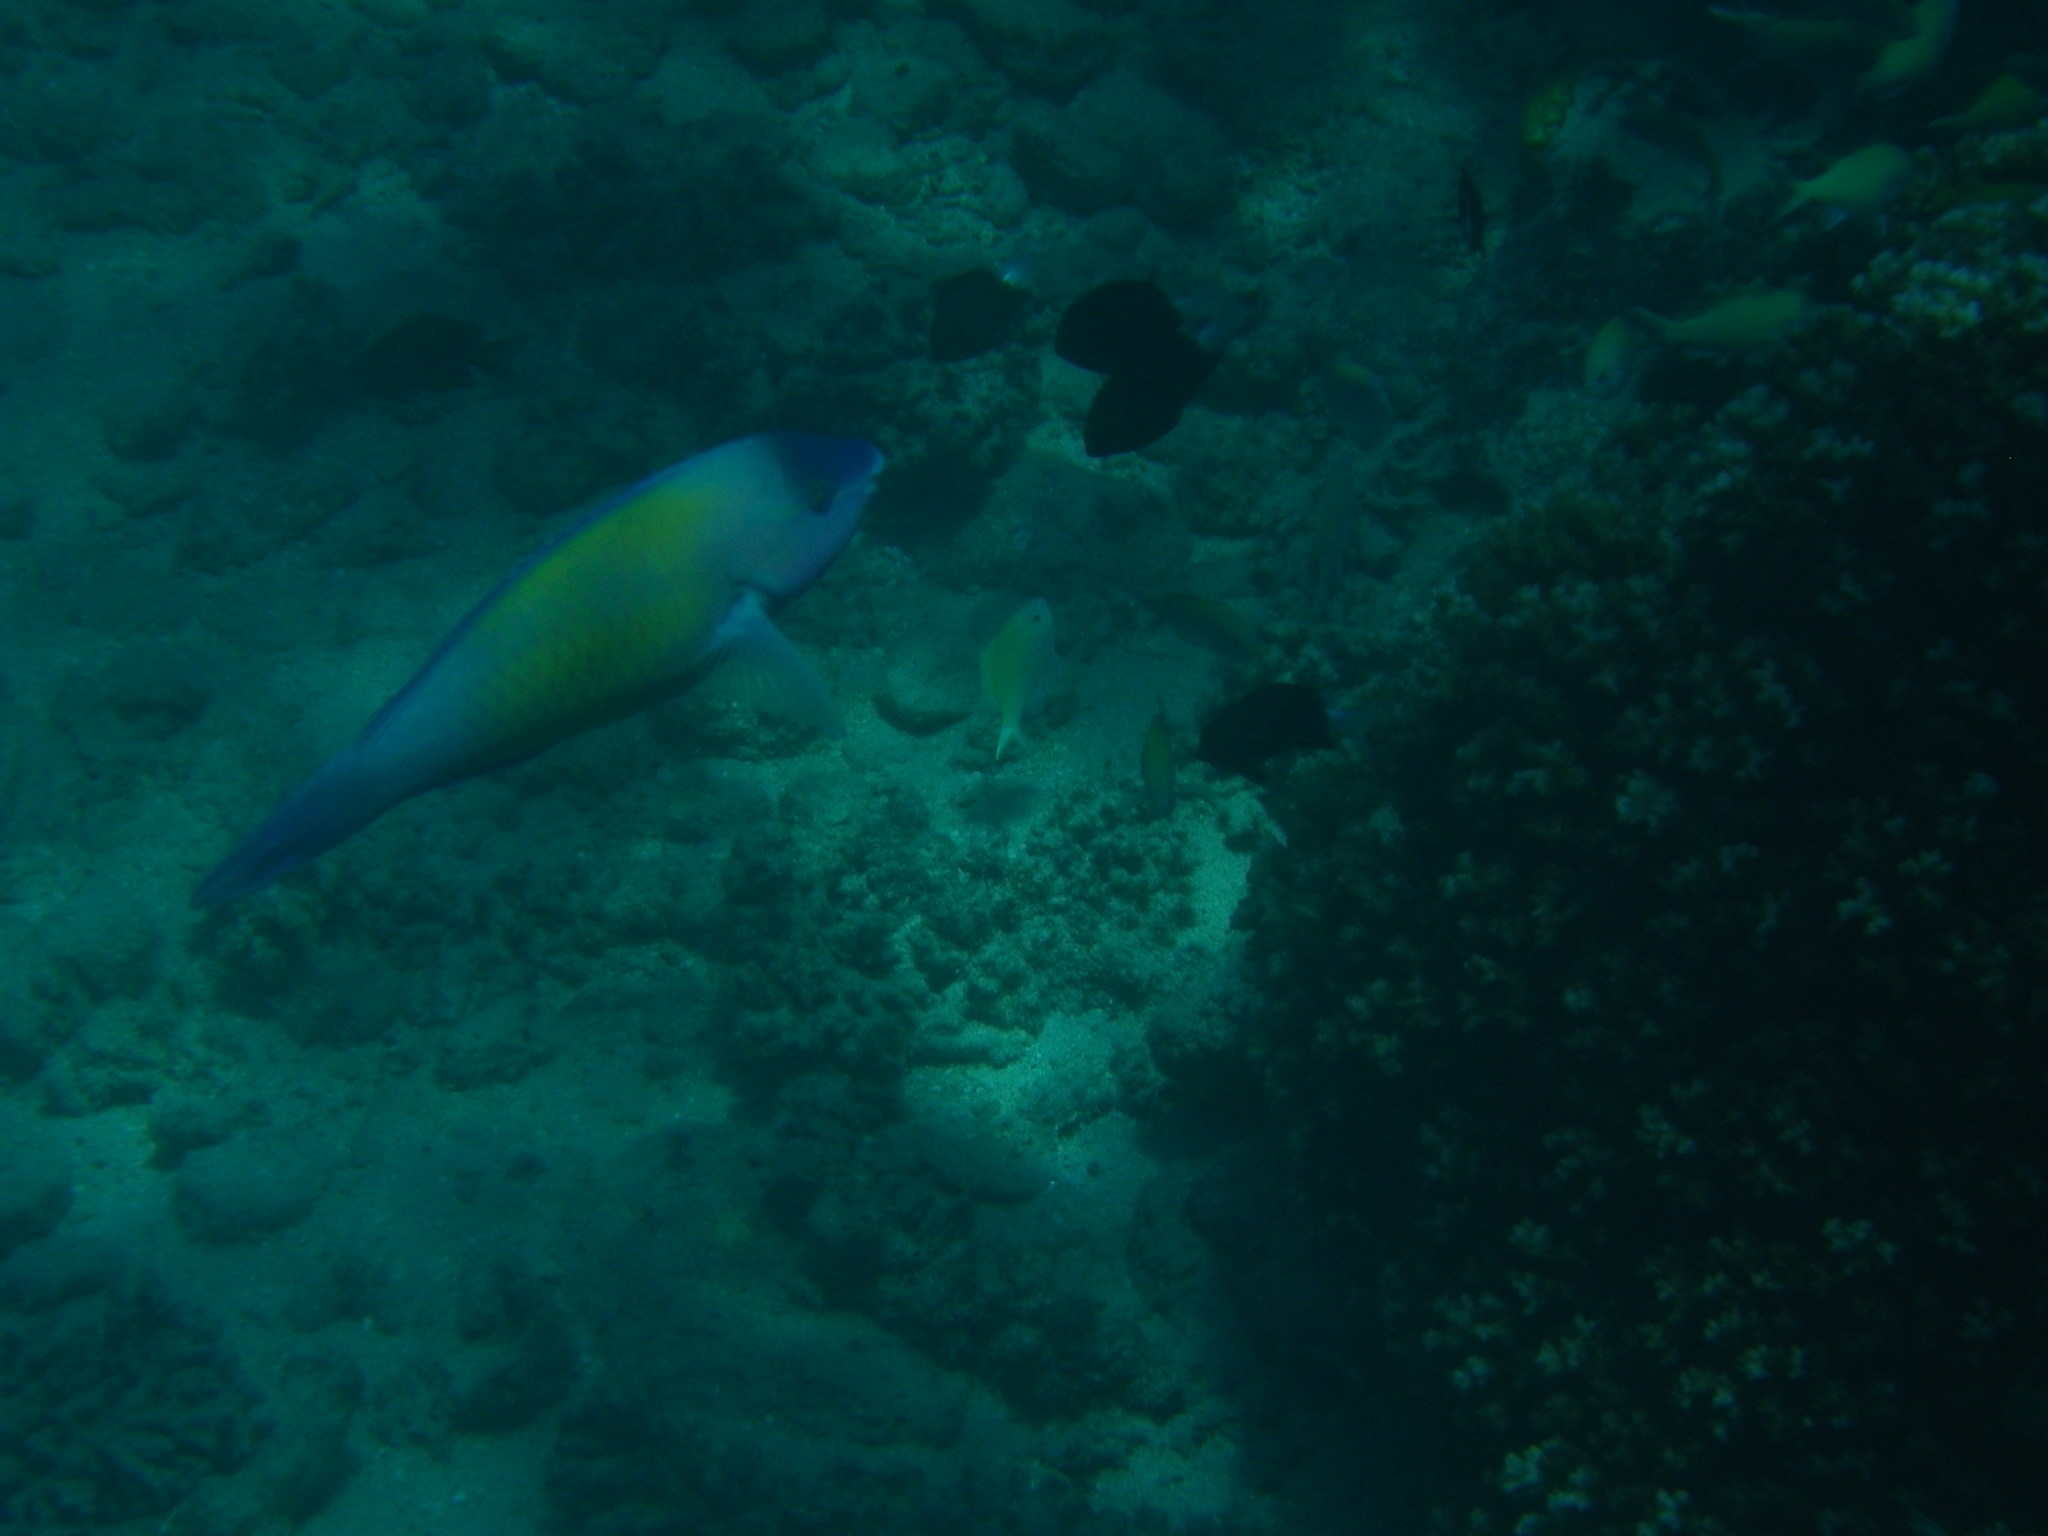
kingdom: Animalia
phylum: Chordata
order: Perciformes
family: Scaridae
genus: Scarus
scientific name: Scarus psittacus
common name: Palenose parrotfish
